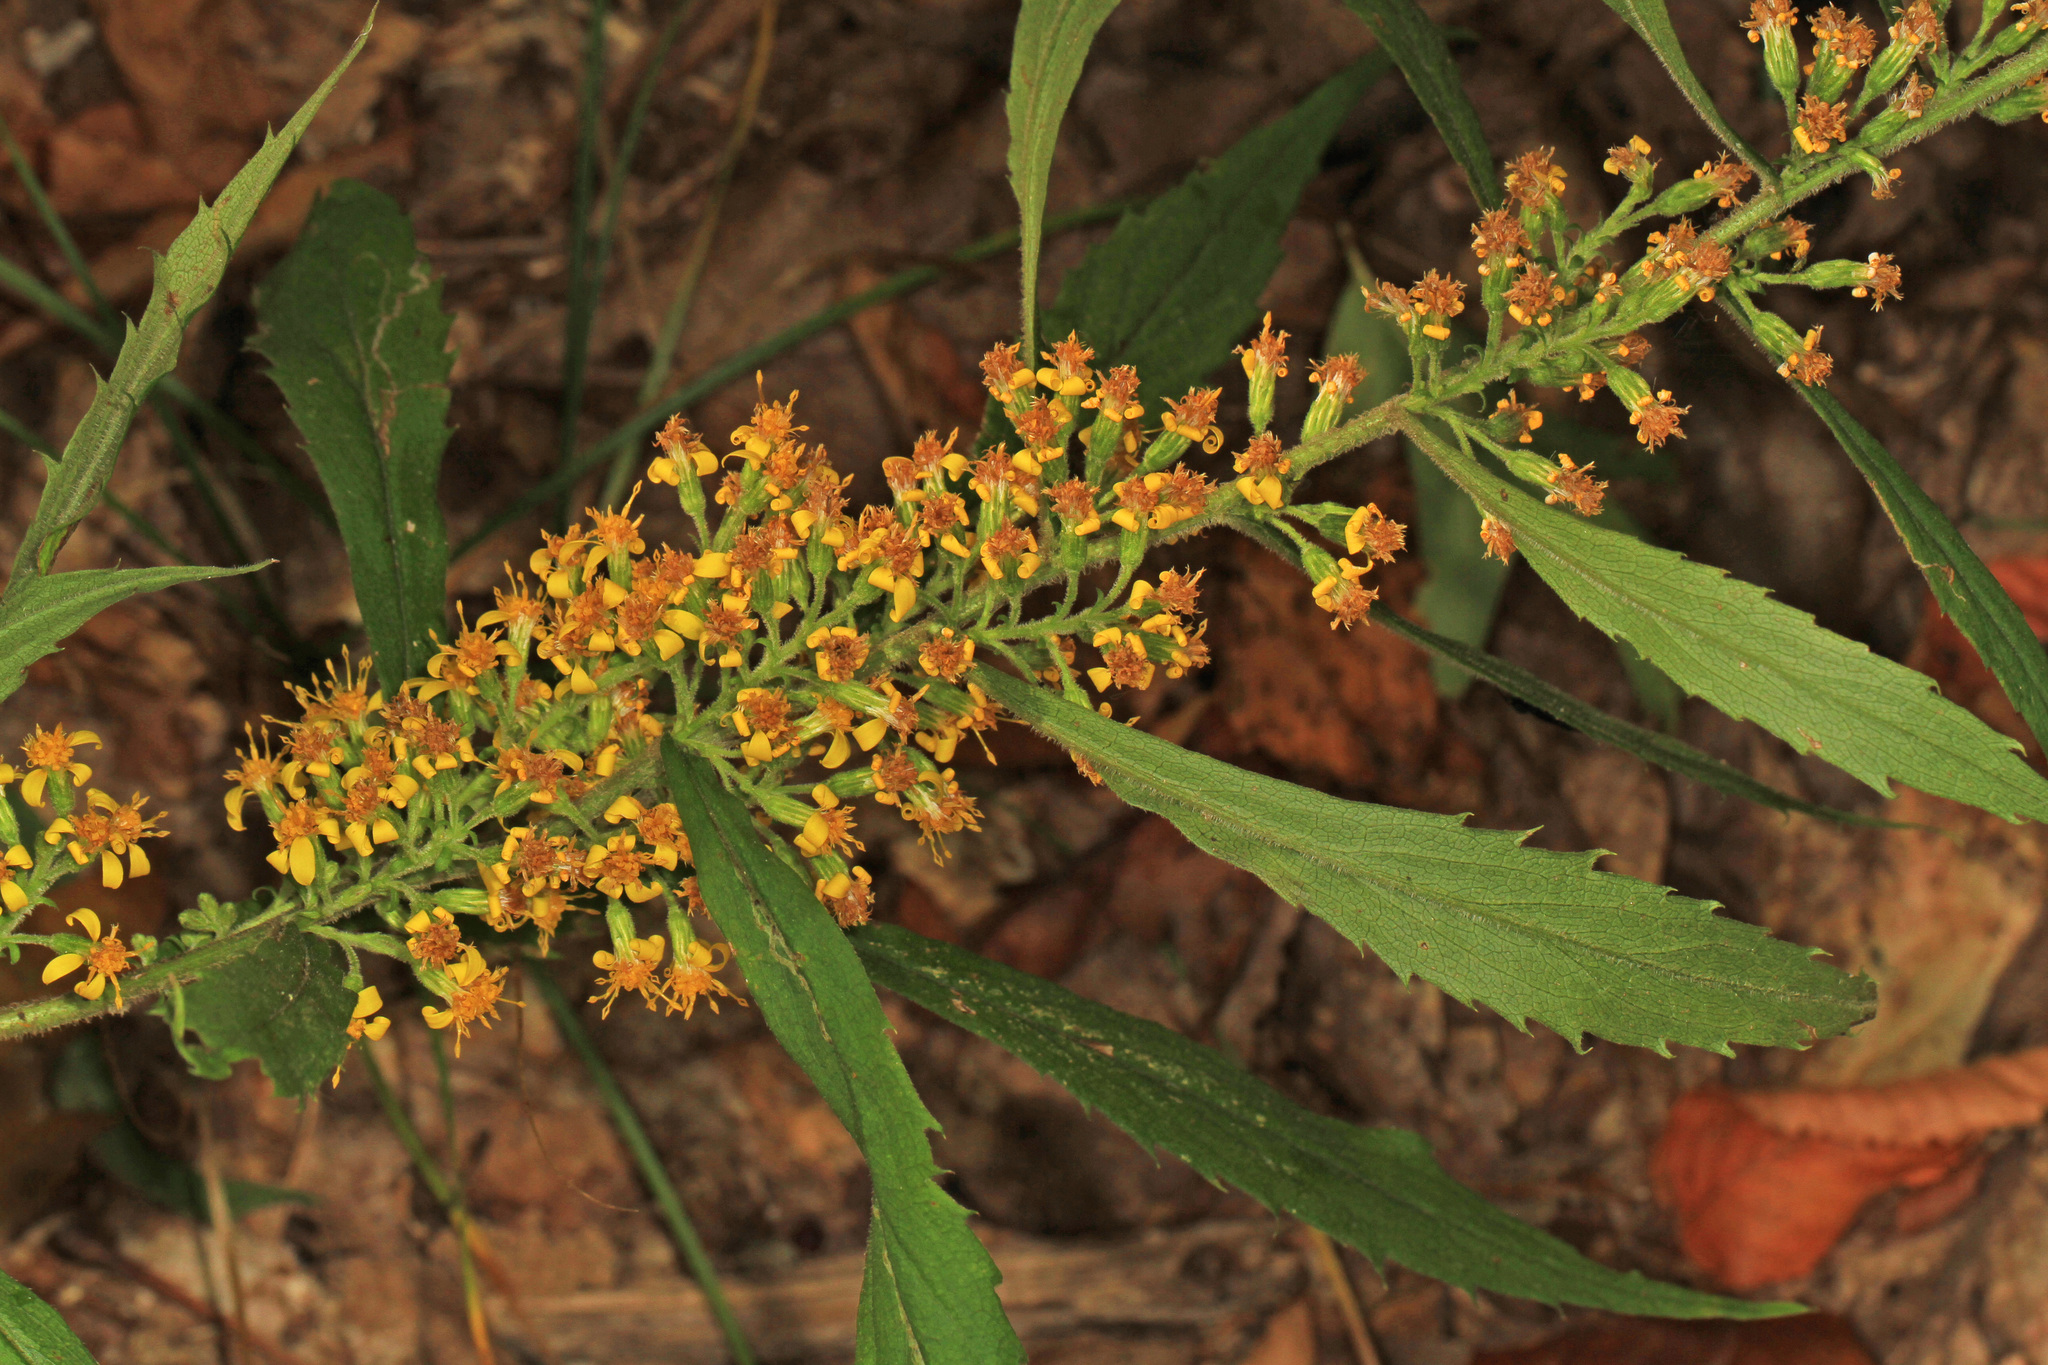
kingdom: Plantae
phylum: Tracheophyta
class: Magnoliopsida
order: Asterales
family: Asteraceae
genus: Solidago
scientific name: Solidago curtisii
